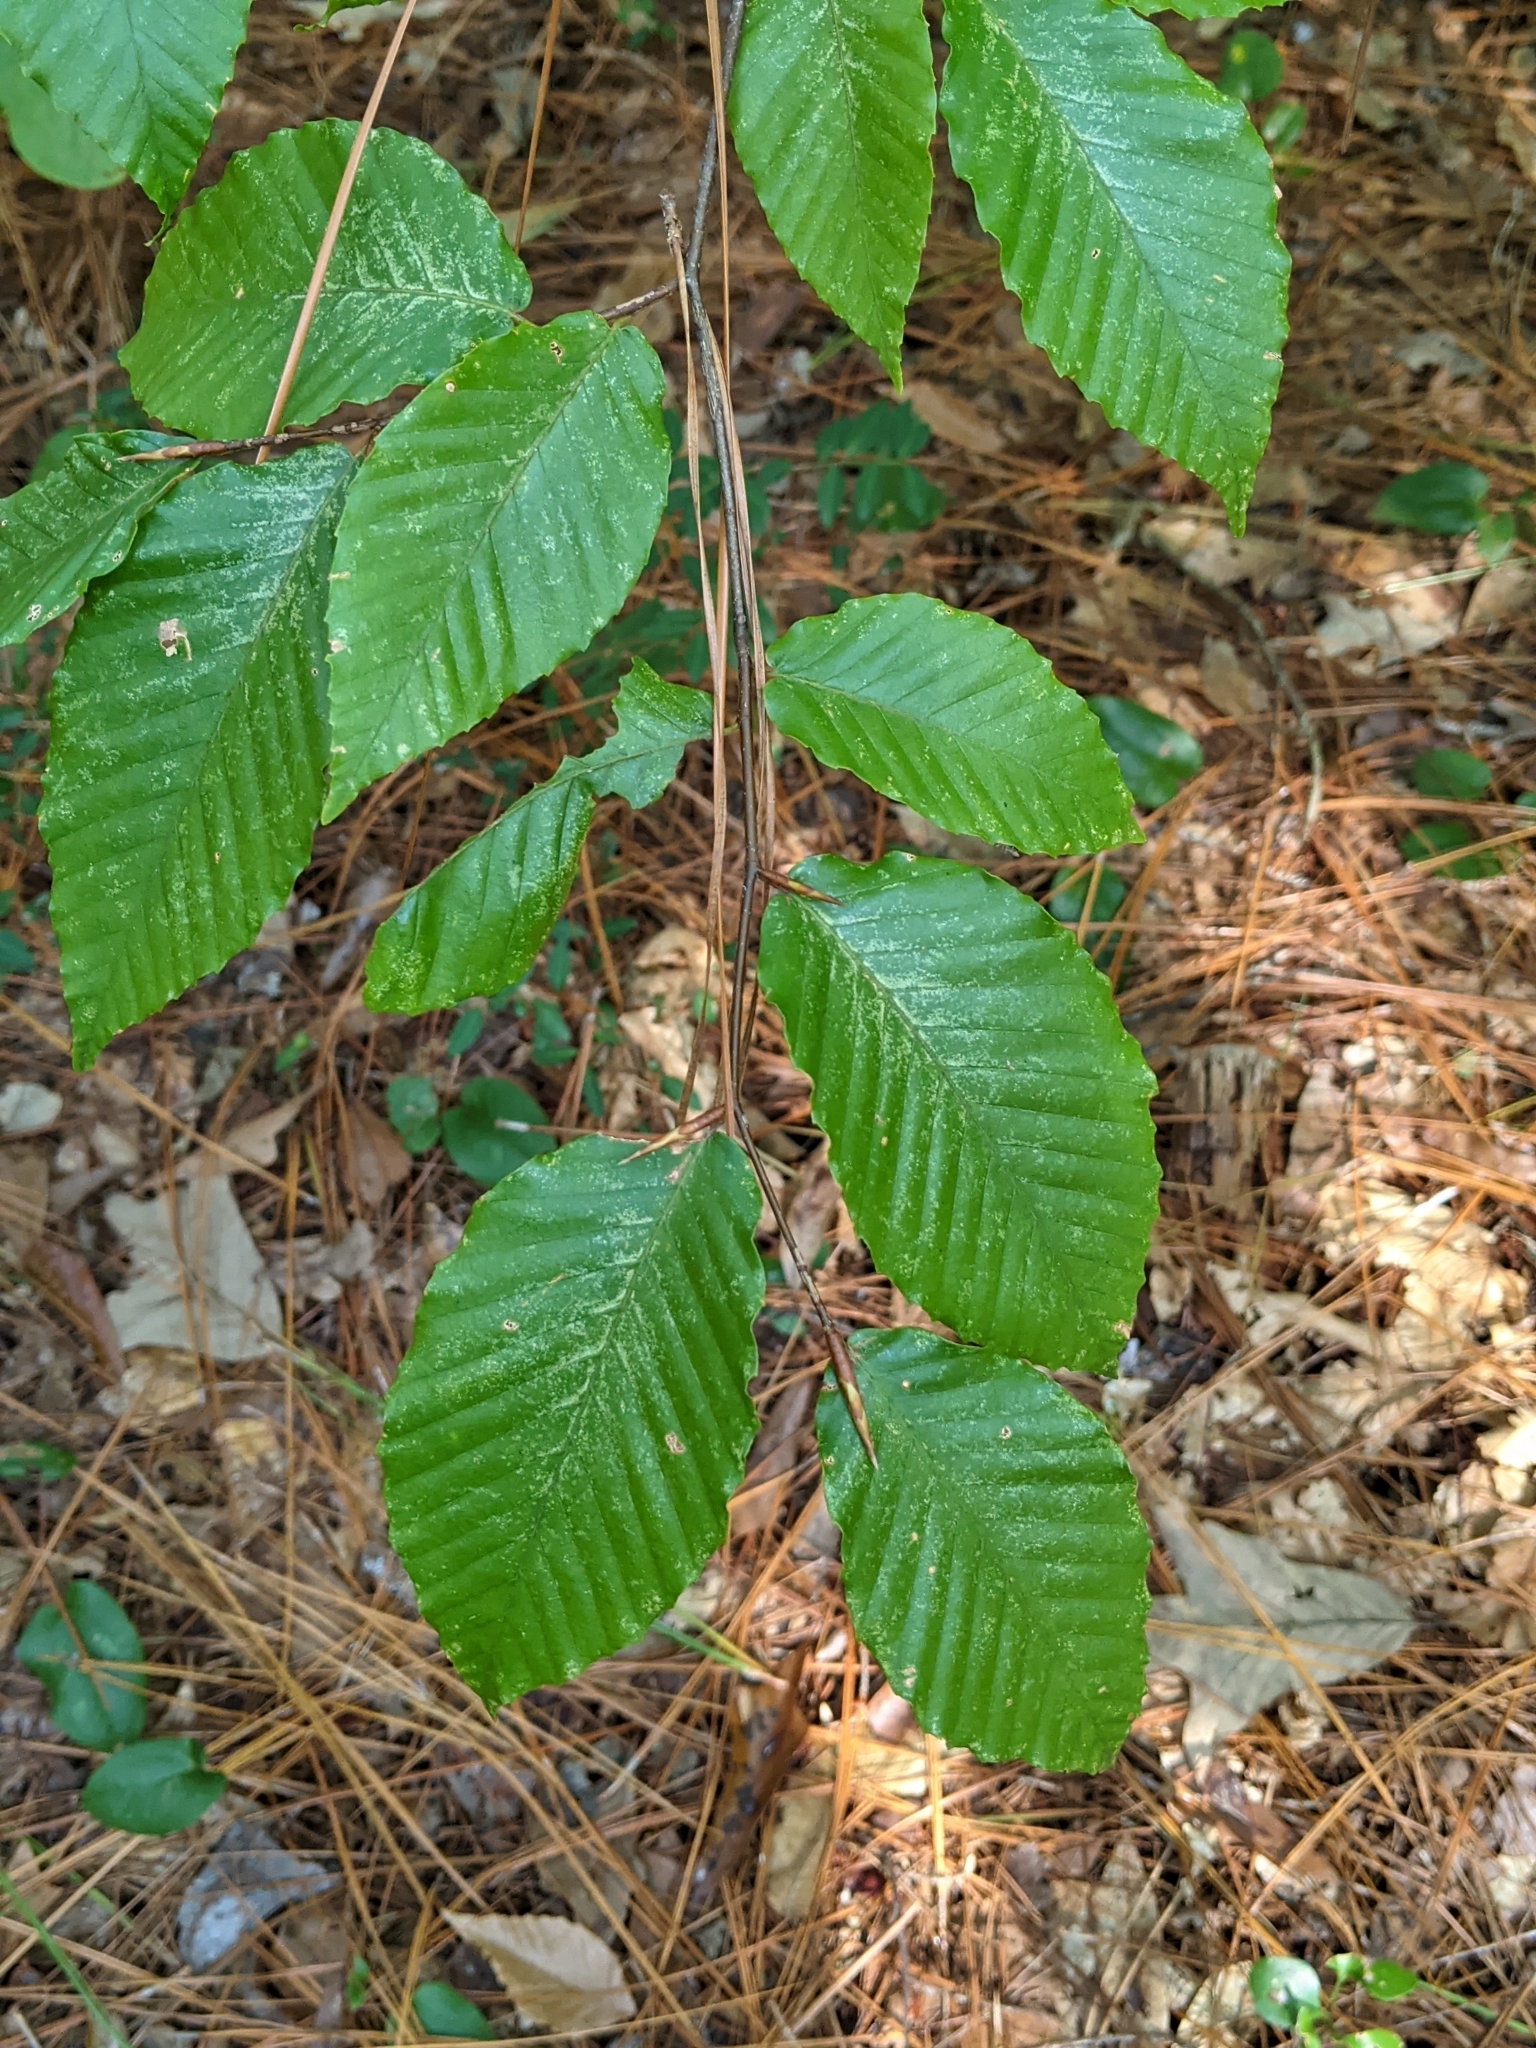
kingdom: Plantae
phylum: Tracheophyta
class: Magnoliopsida
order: Fagales
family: Fagaceae
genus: Fagus
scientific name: Fagus grandifolia
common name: American beech
